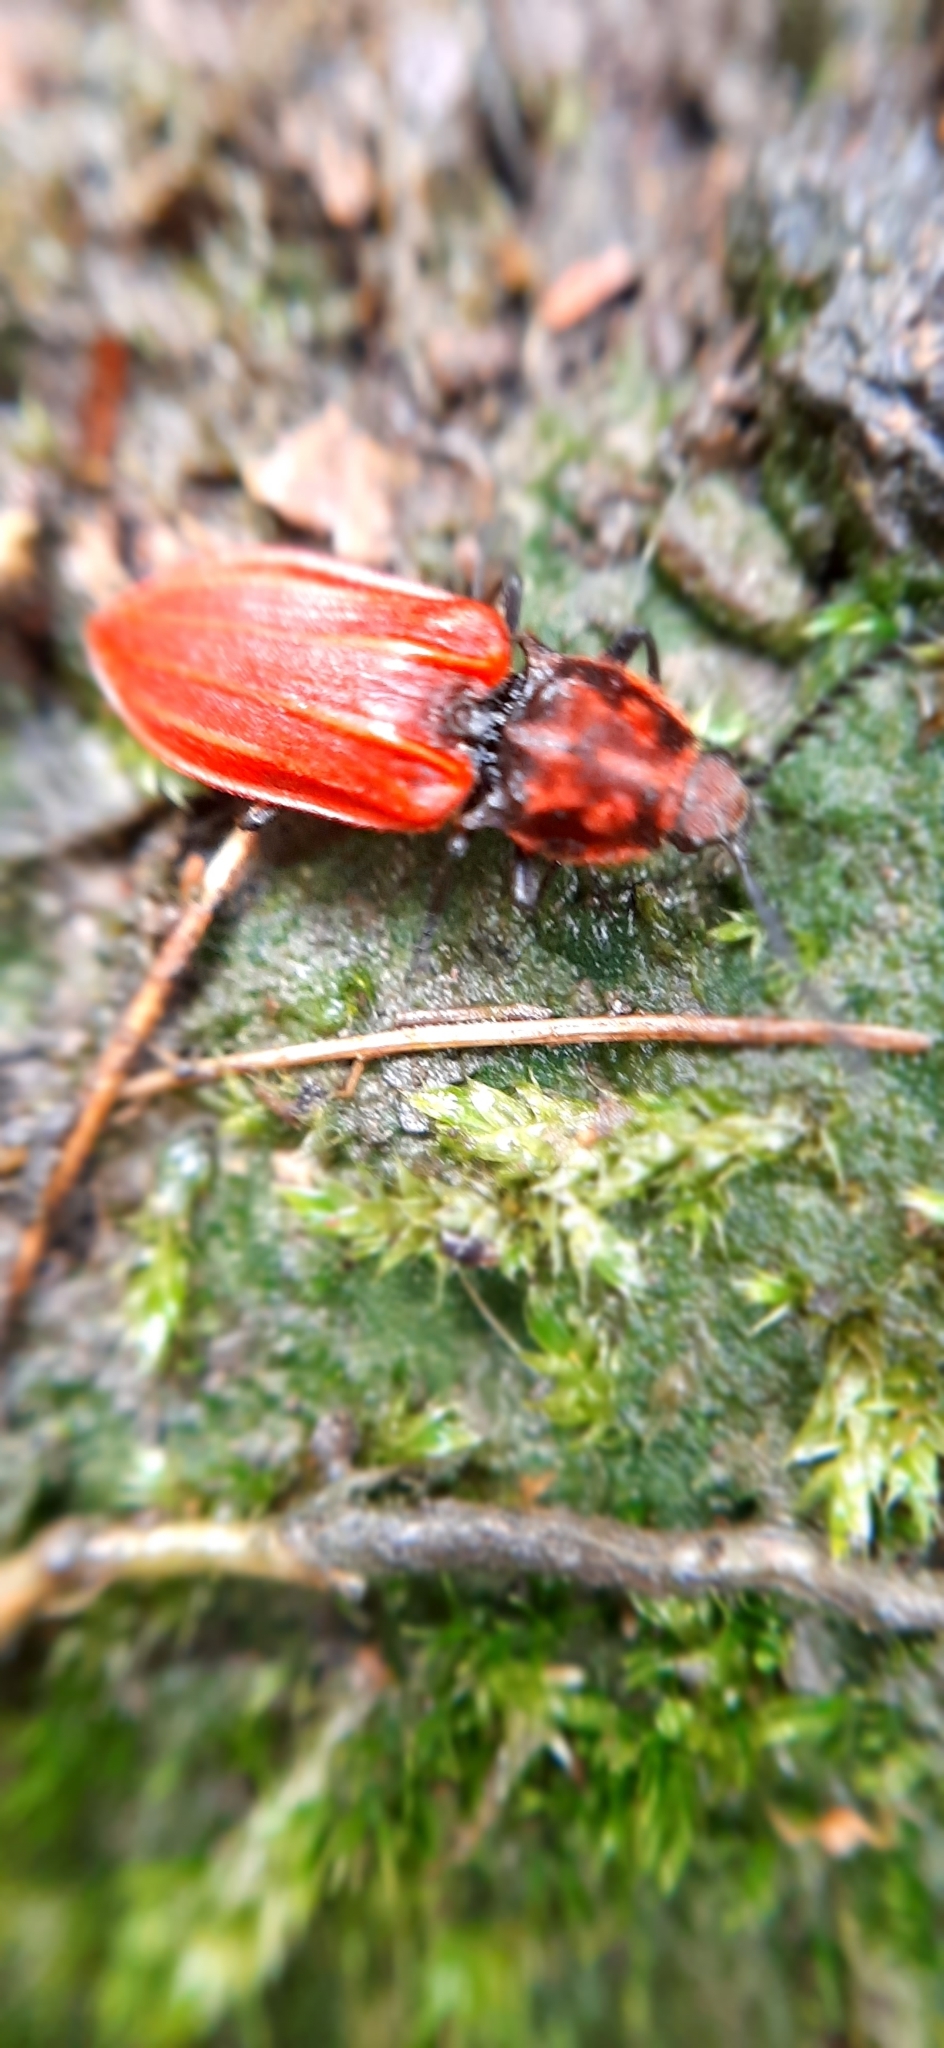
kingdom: Animalia
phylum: Arthropoda
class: Insecta
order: Coleoptera
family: Elateridae
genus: Anostirus
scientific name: Anostirus purpureus
